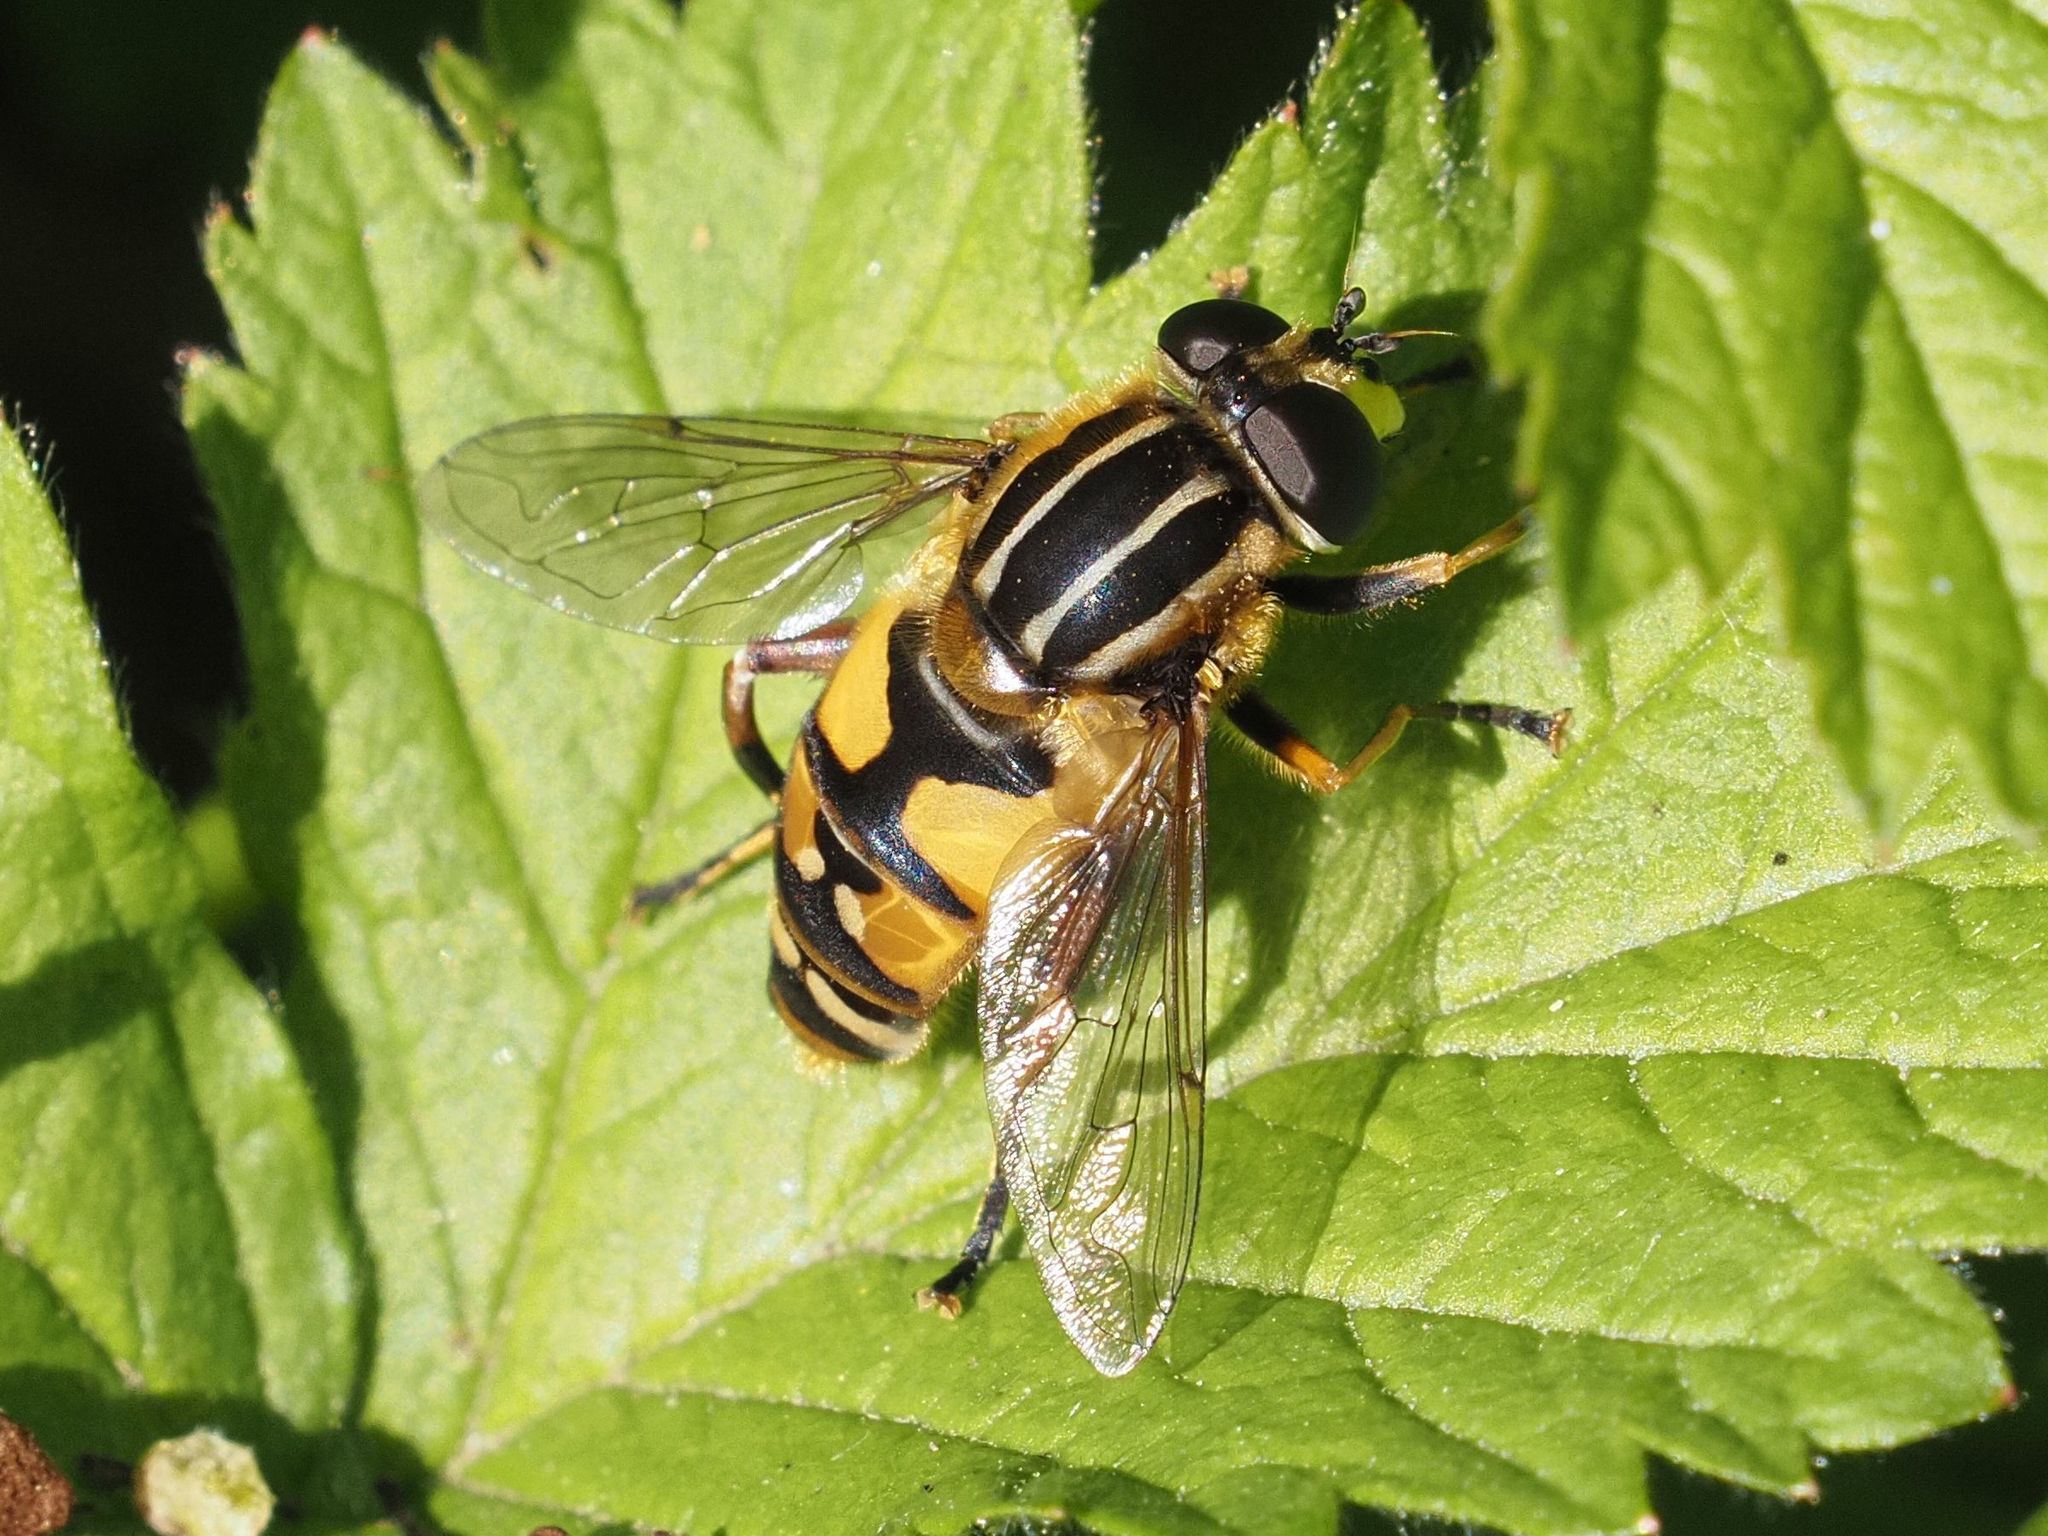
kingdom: Animalia
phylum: Arthropoda
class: Insecta
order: Diptera
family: Syrphidae
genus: Helophilus
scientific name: Helophilus pendulus
